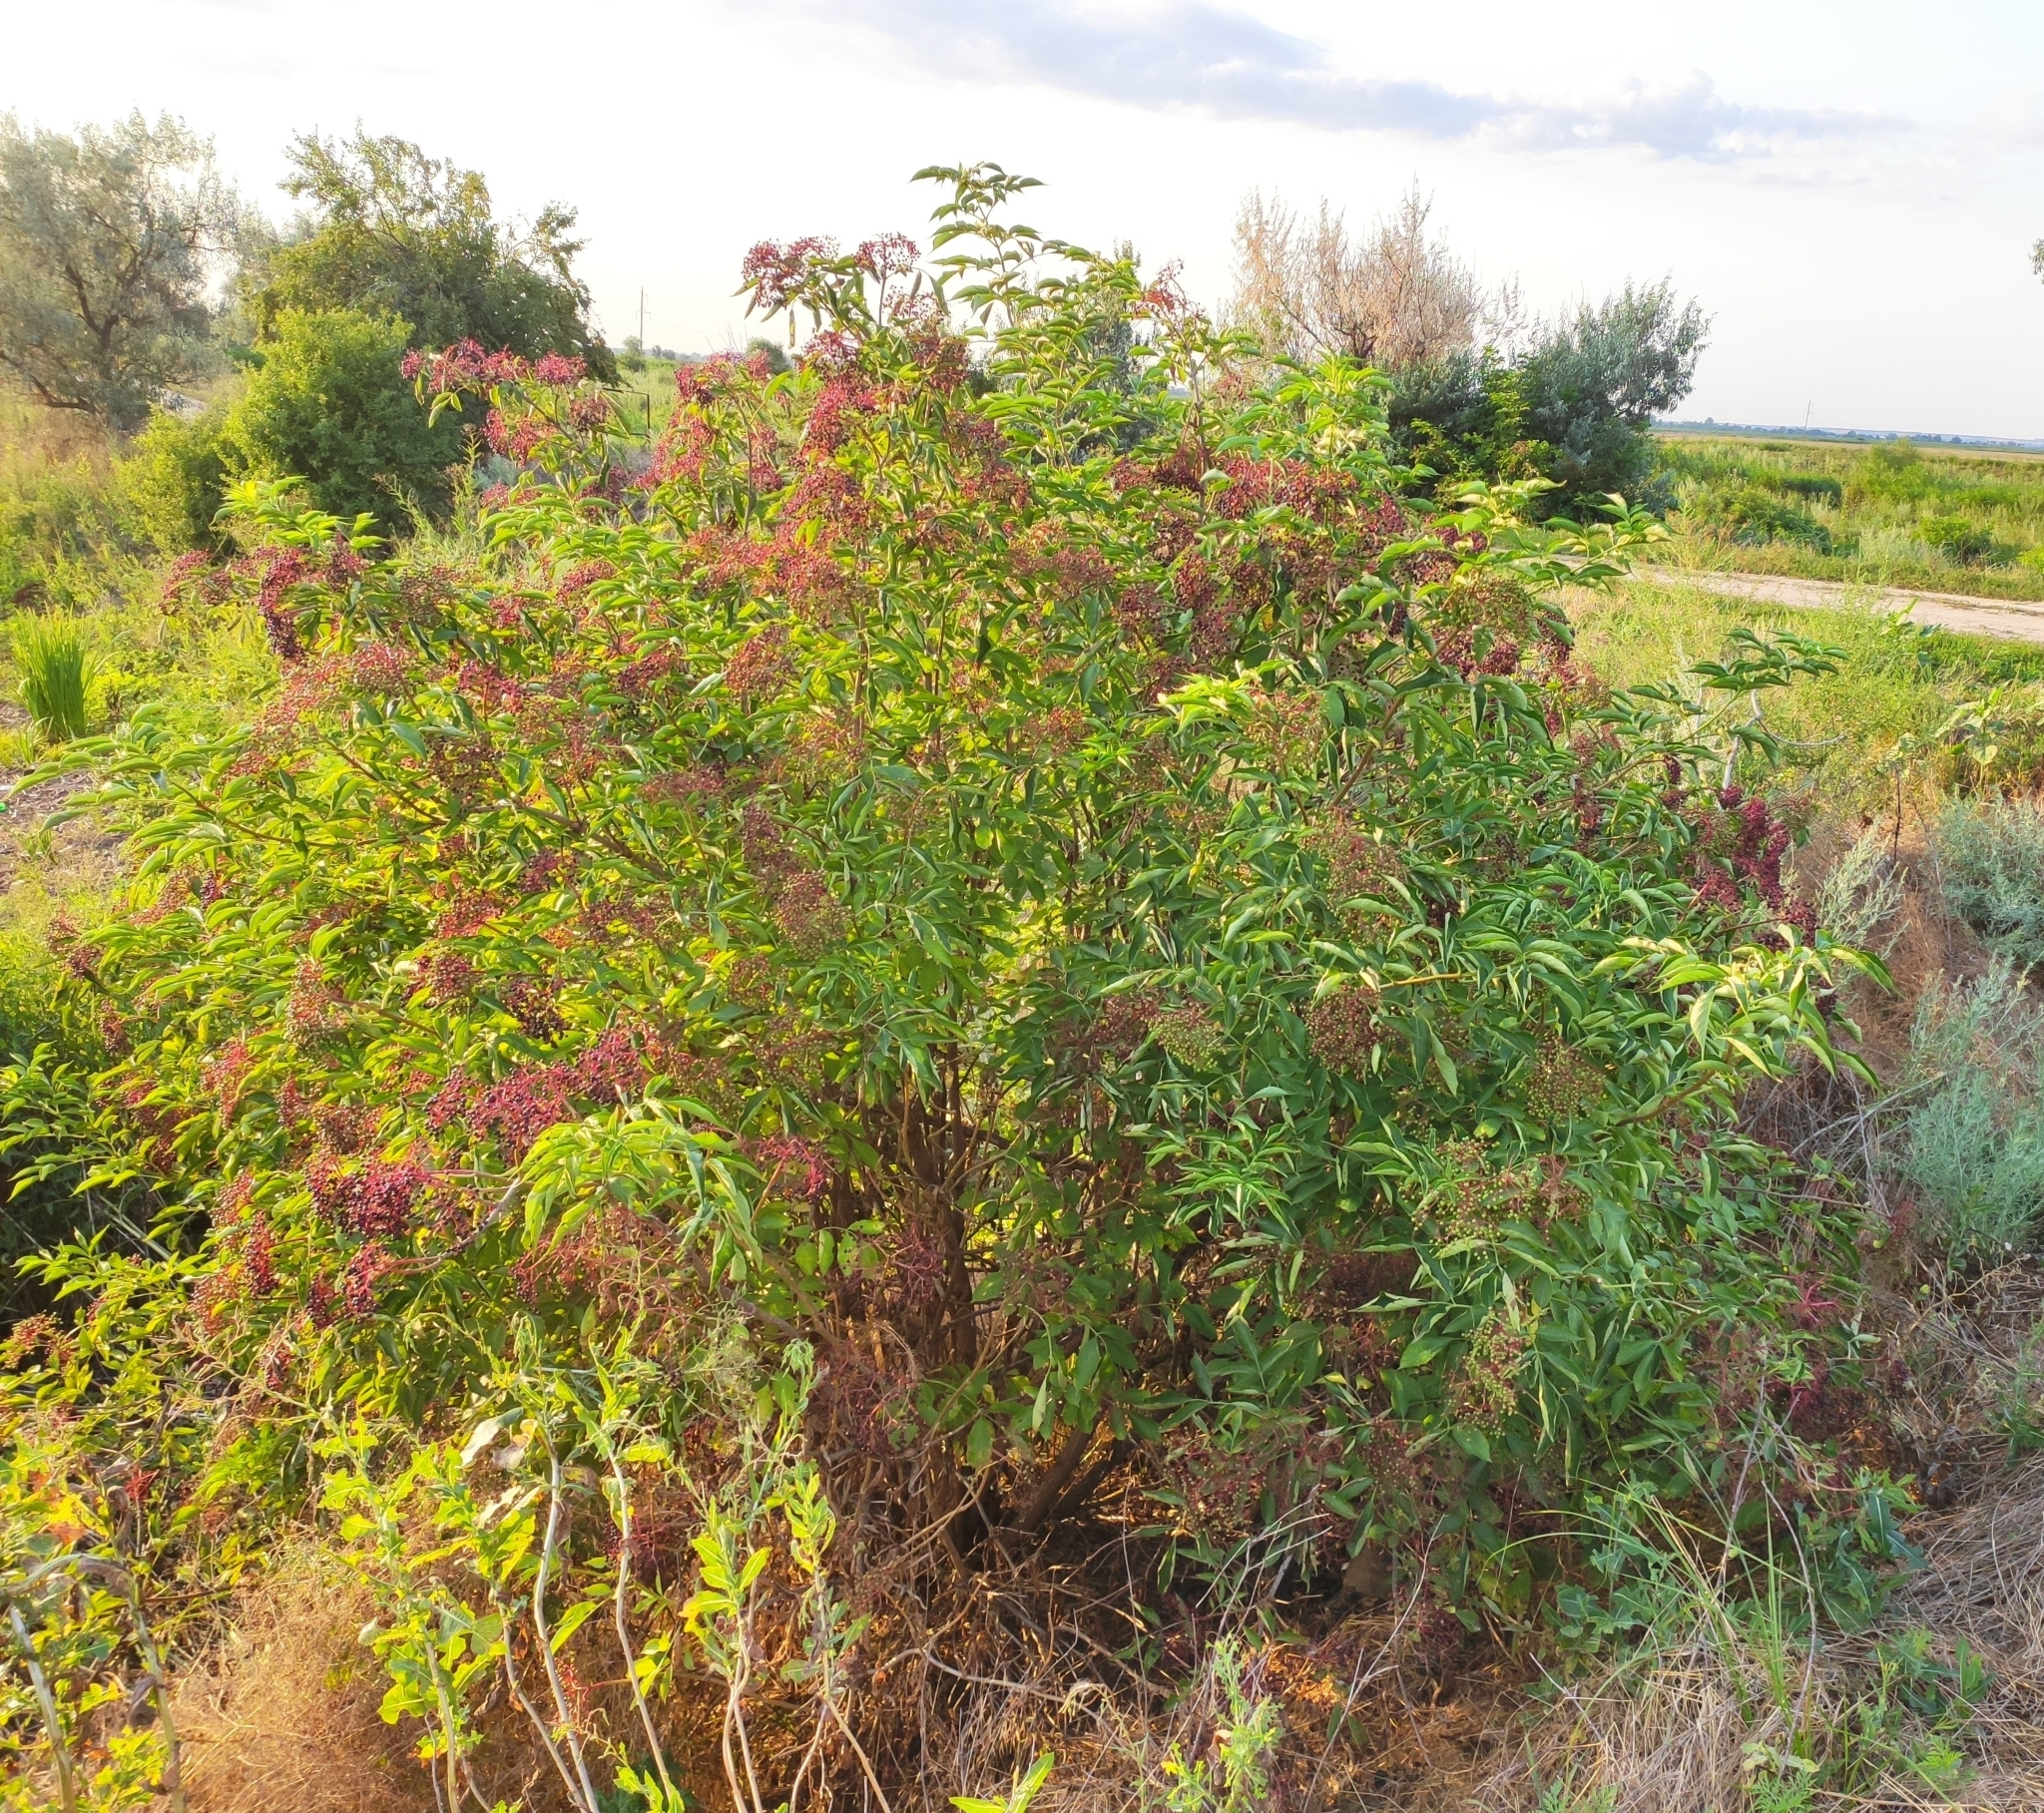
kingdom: Plantae
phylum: Tracheophyta
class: Magnoliopsida
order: Dipsacales
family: Viburnaceae
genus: Sambucus
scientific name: Sambucus nigra
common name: Elder
